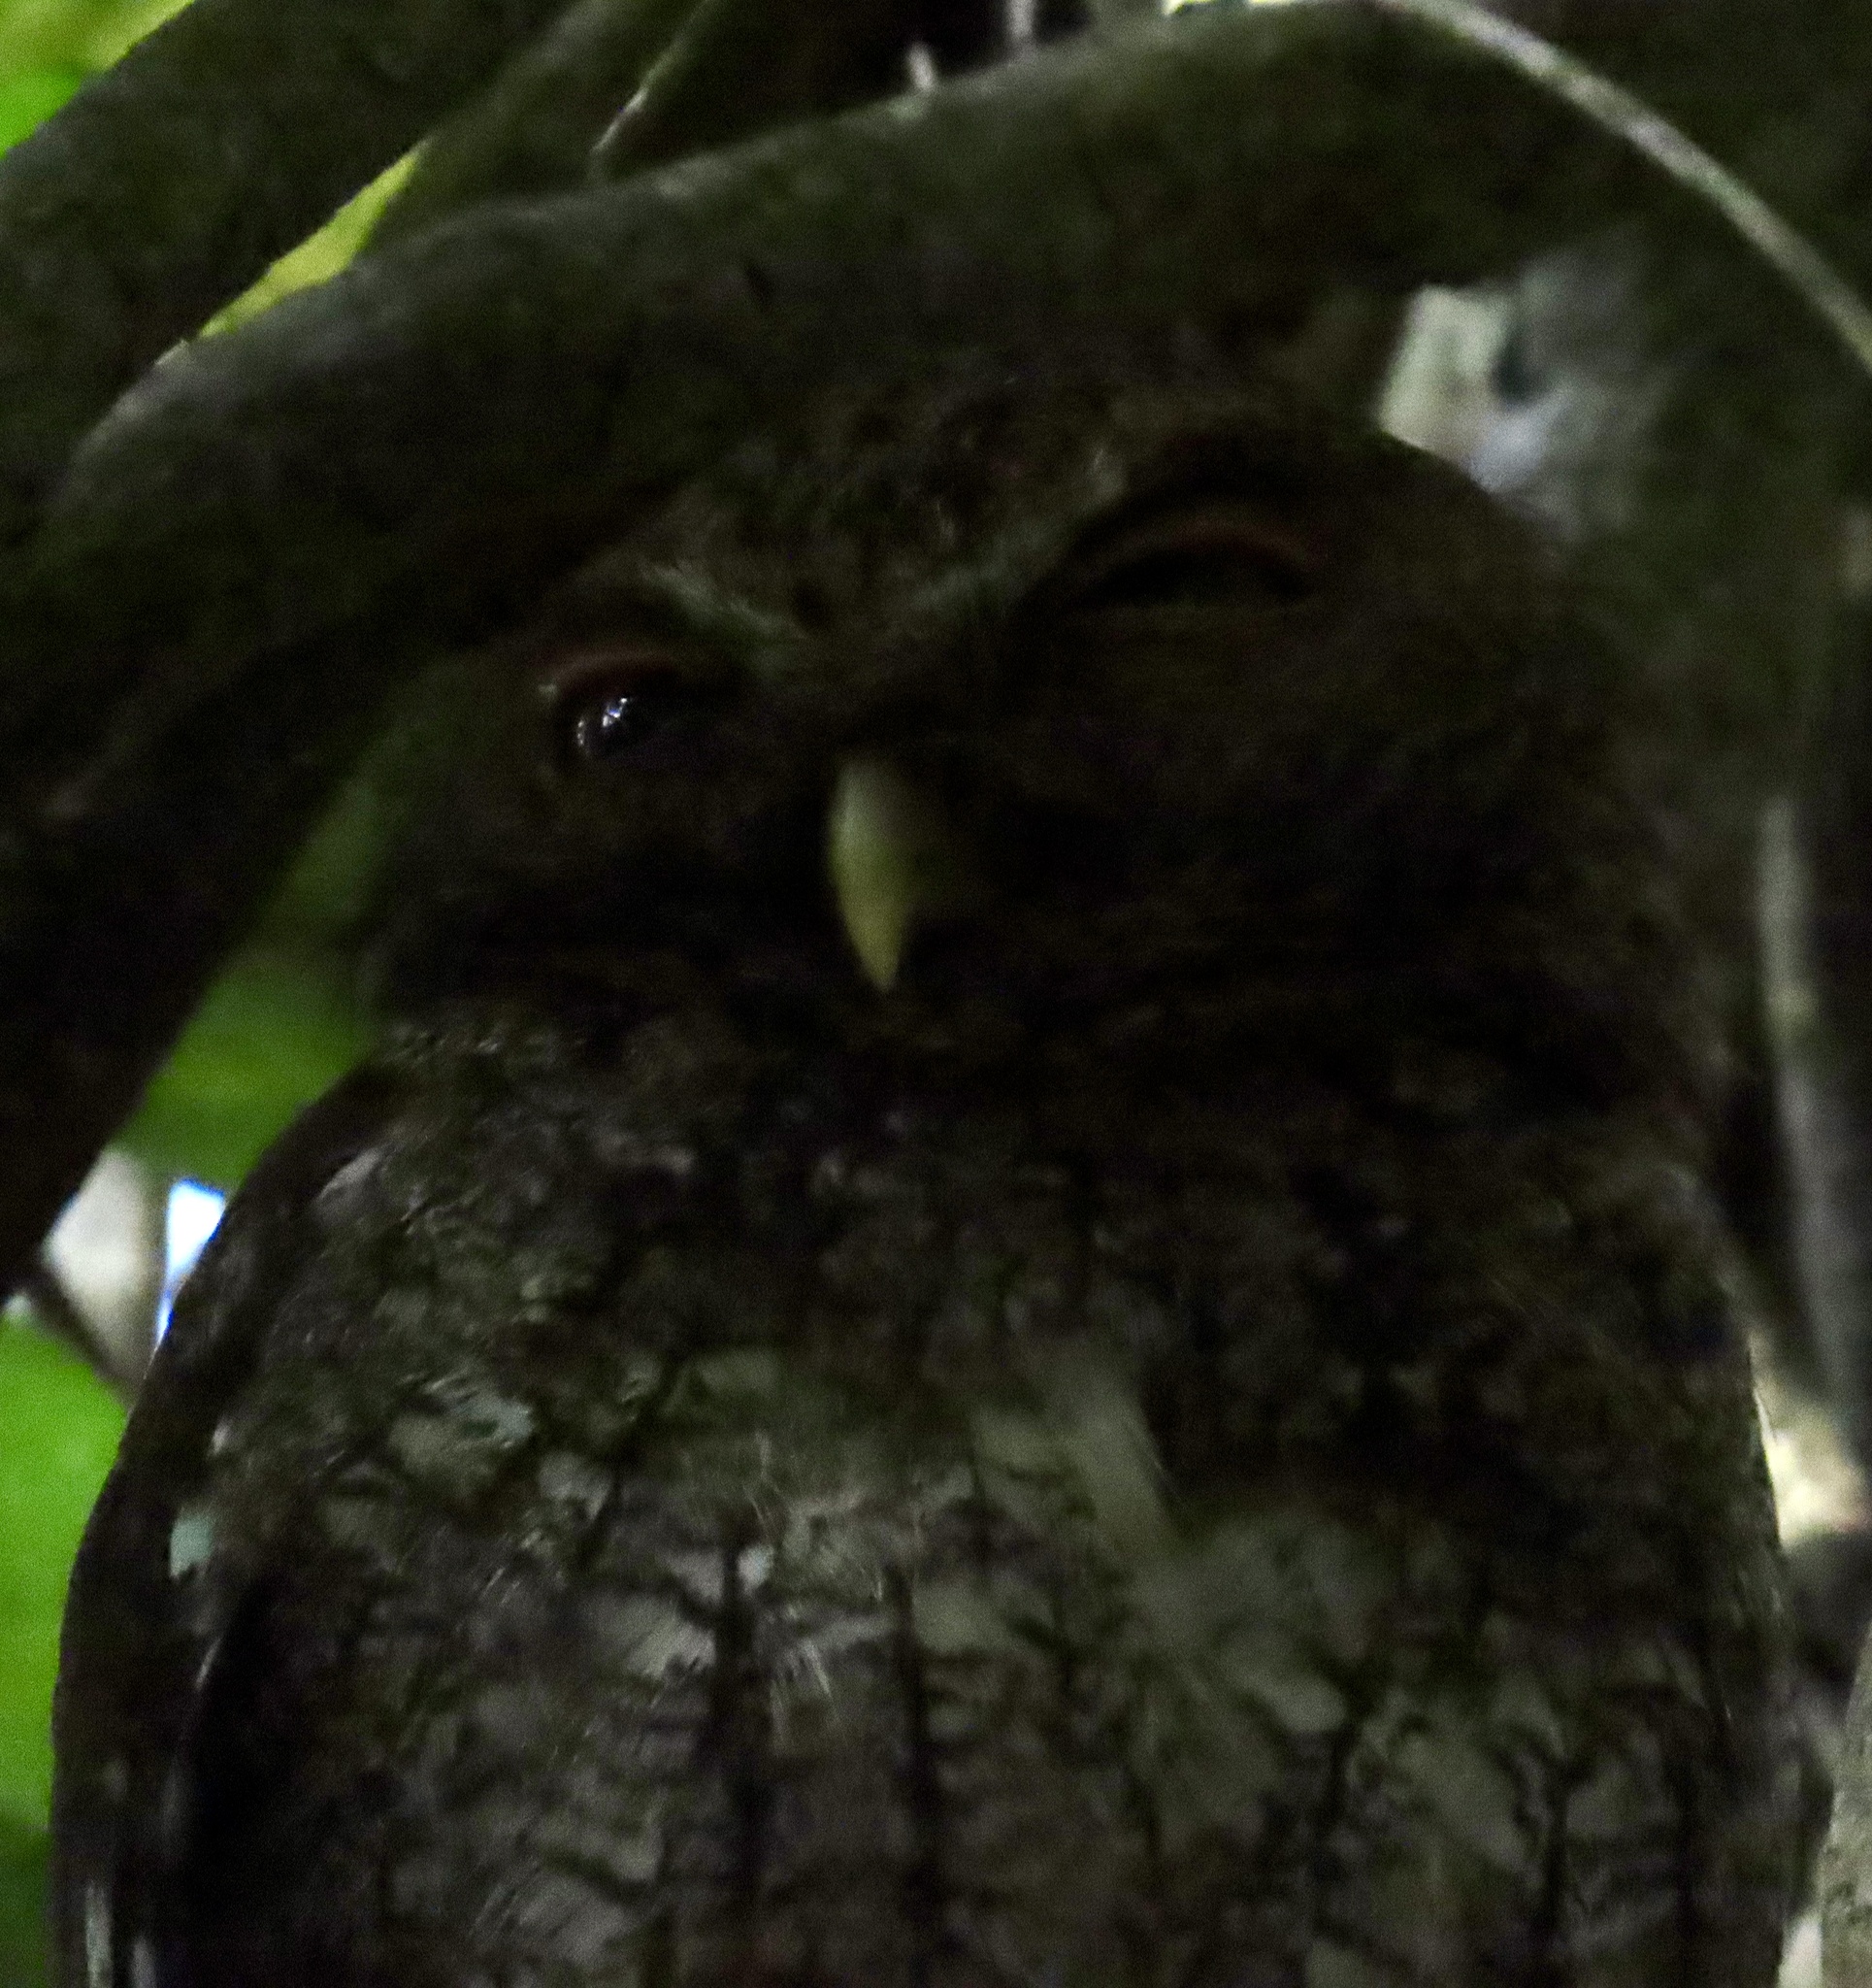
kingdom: Animalia
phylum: Chordata
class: Aves
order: Strigiformes
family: Strigidae
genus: Megascops
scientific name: Megascops centralis
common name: Choco screech owl
